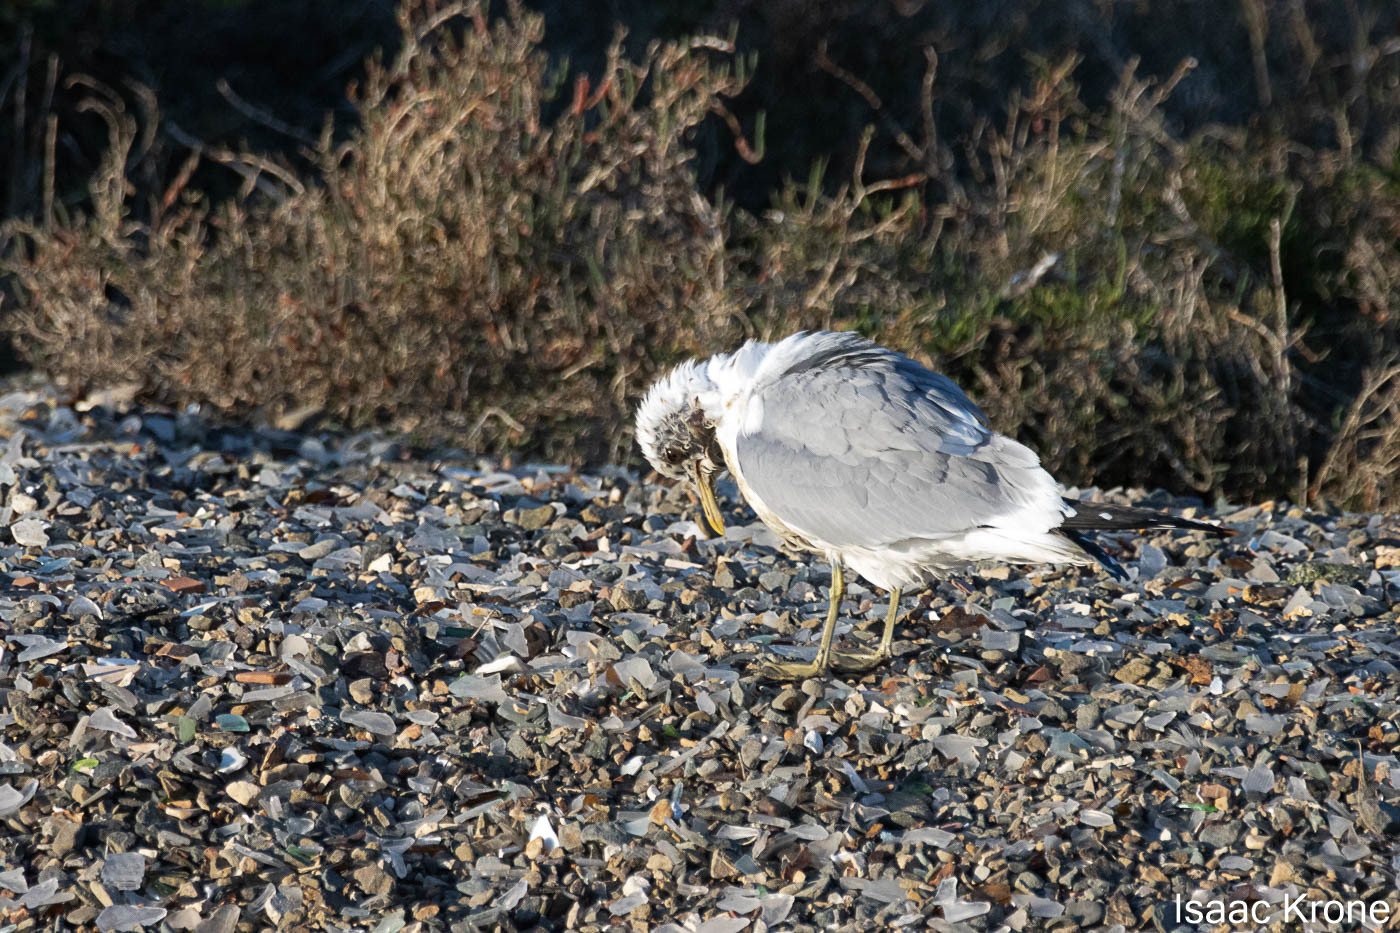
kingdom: Animalia
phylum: Chordata
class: Aves
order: Charadriiformes
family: Laridae
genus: Larus
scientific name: Larus brachyrhynchus
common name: Short-billed gull
